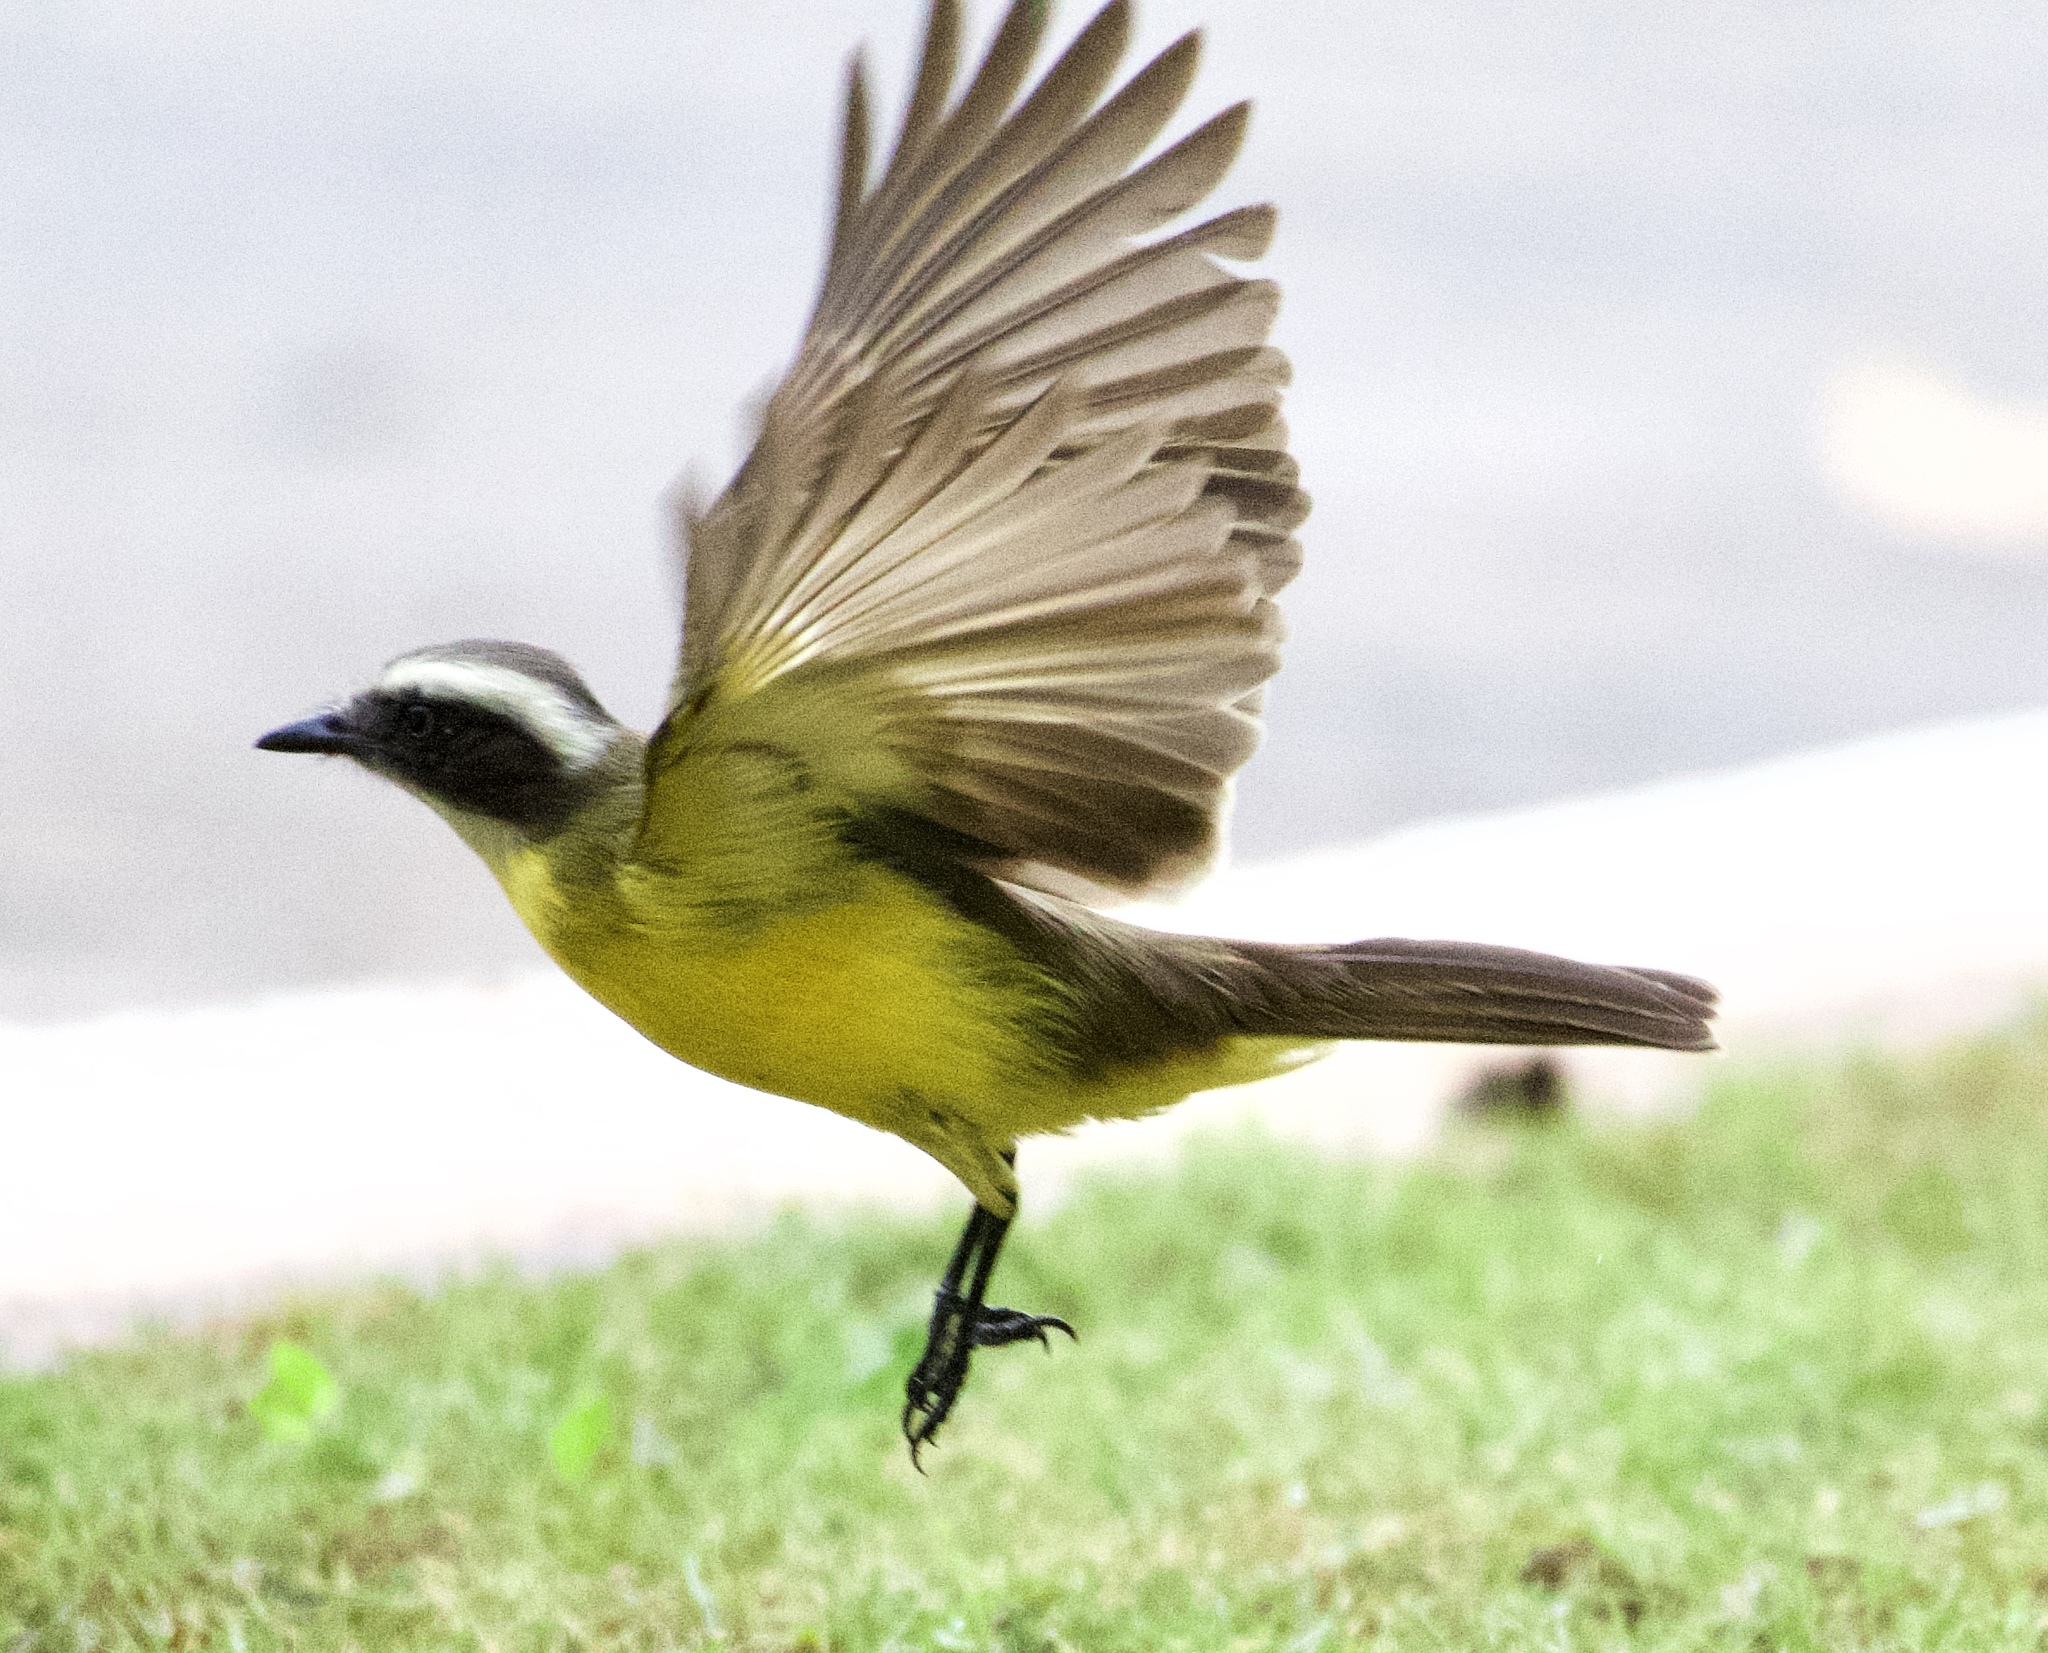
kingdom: Animalia
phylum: Chordata
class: Aves
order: Passeriformes
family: Tyrannidae
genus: Myiozetetes
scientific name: Myiozetetes similis
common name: Social flycatcher
